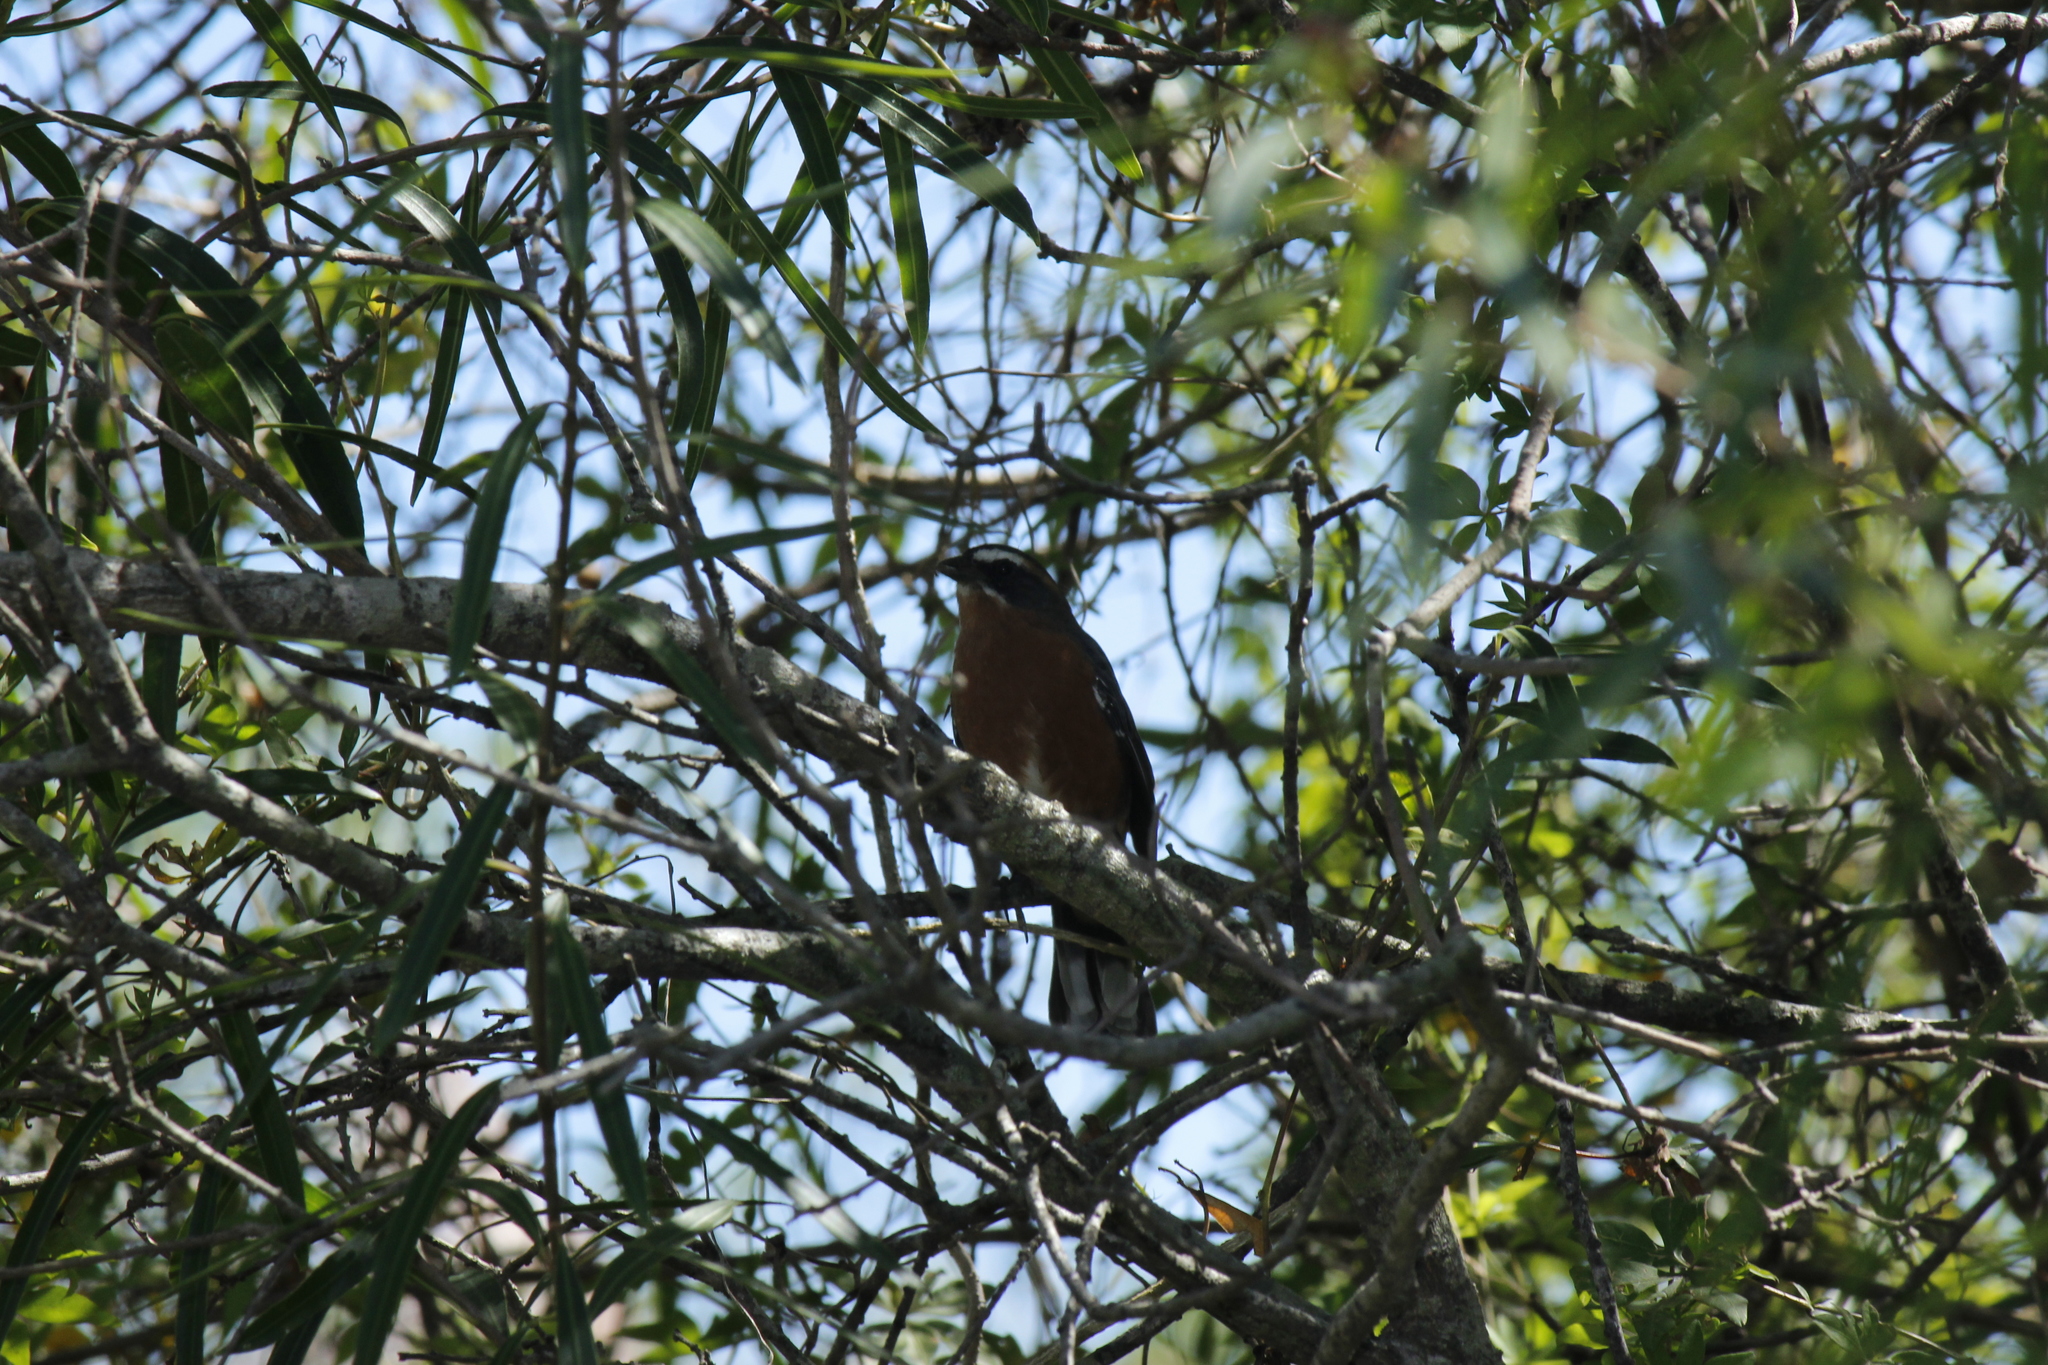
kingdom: Animalia
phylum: Chordata
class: Aves
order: Passeriformes
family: Thraupidae
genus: Poospiza
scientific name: Poospiza nigrorufa
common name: Black-and-rufous warbling finch
